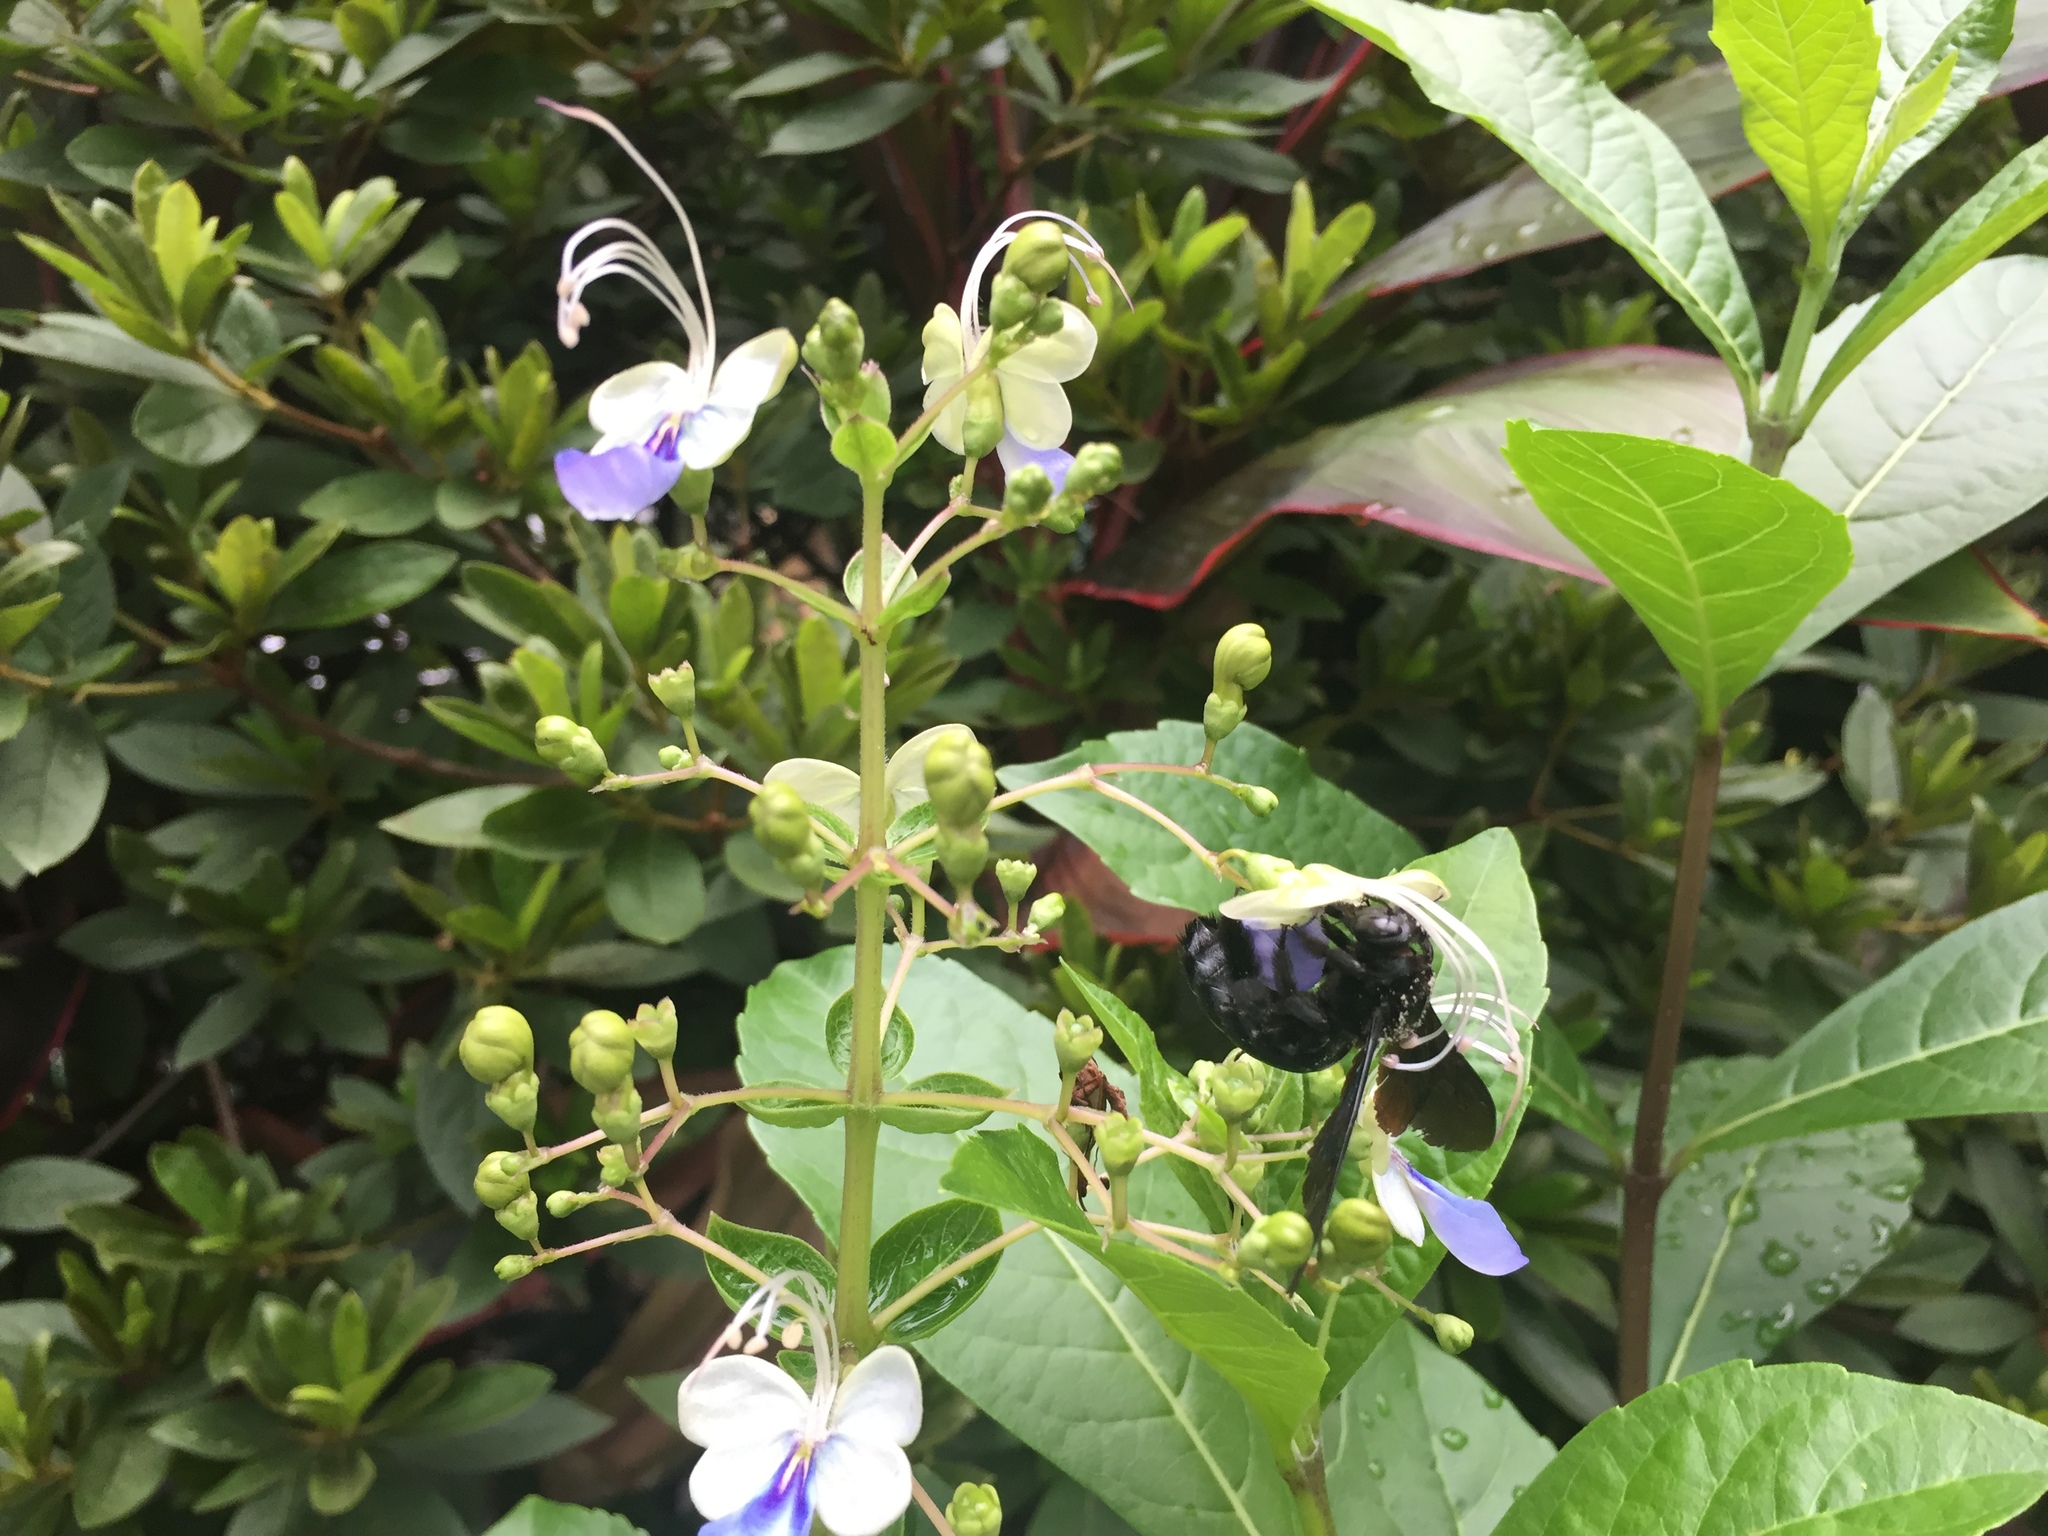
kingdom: Animalia
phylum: Arthropoda
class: Insecta
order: Hymenoptera
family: Apidae
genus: Xylocopa
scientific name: Xylocopa tranquebarorum
